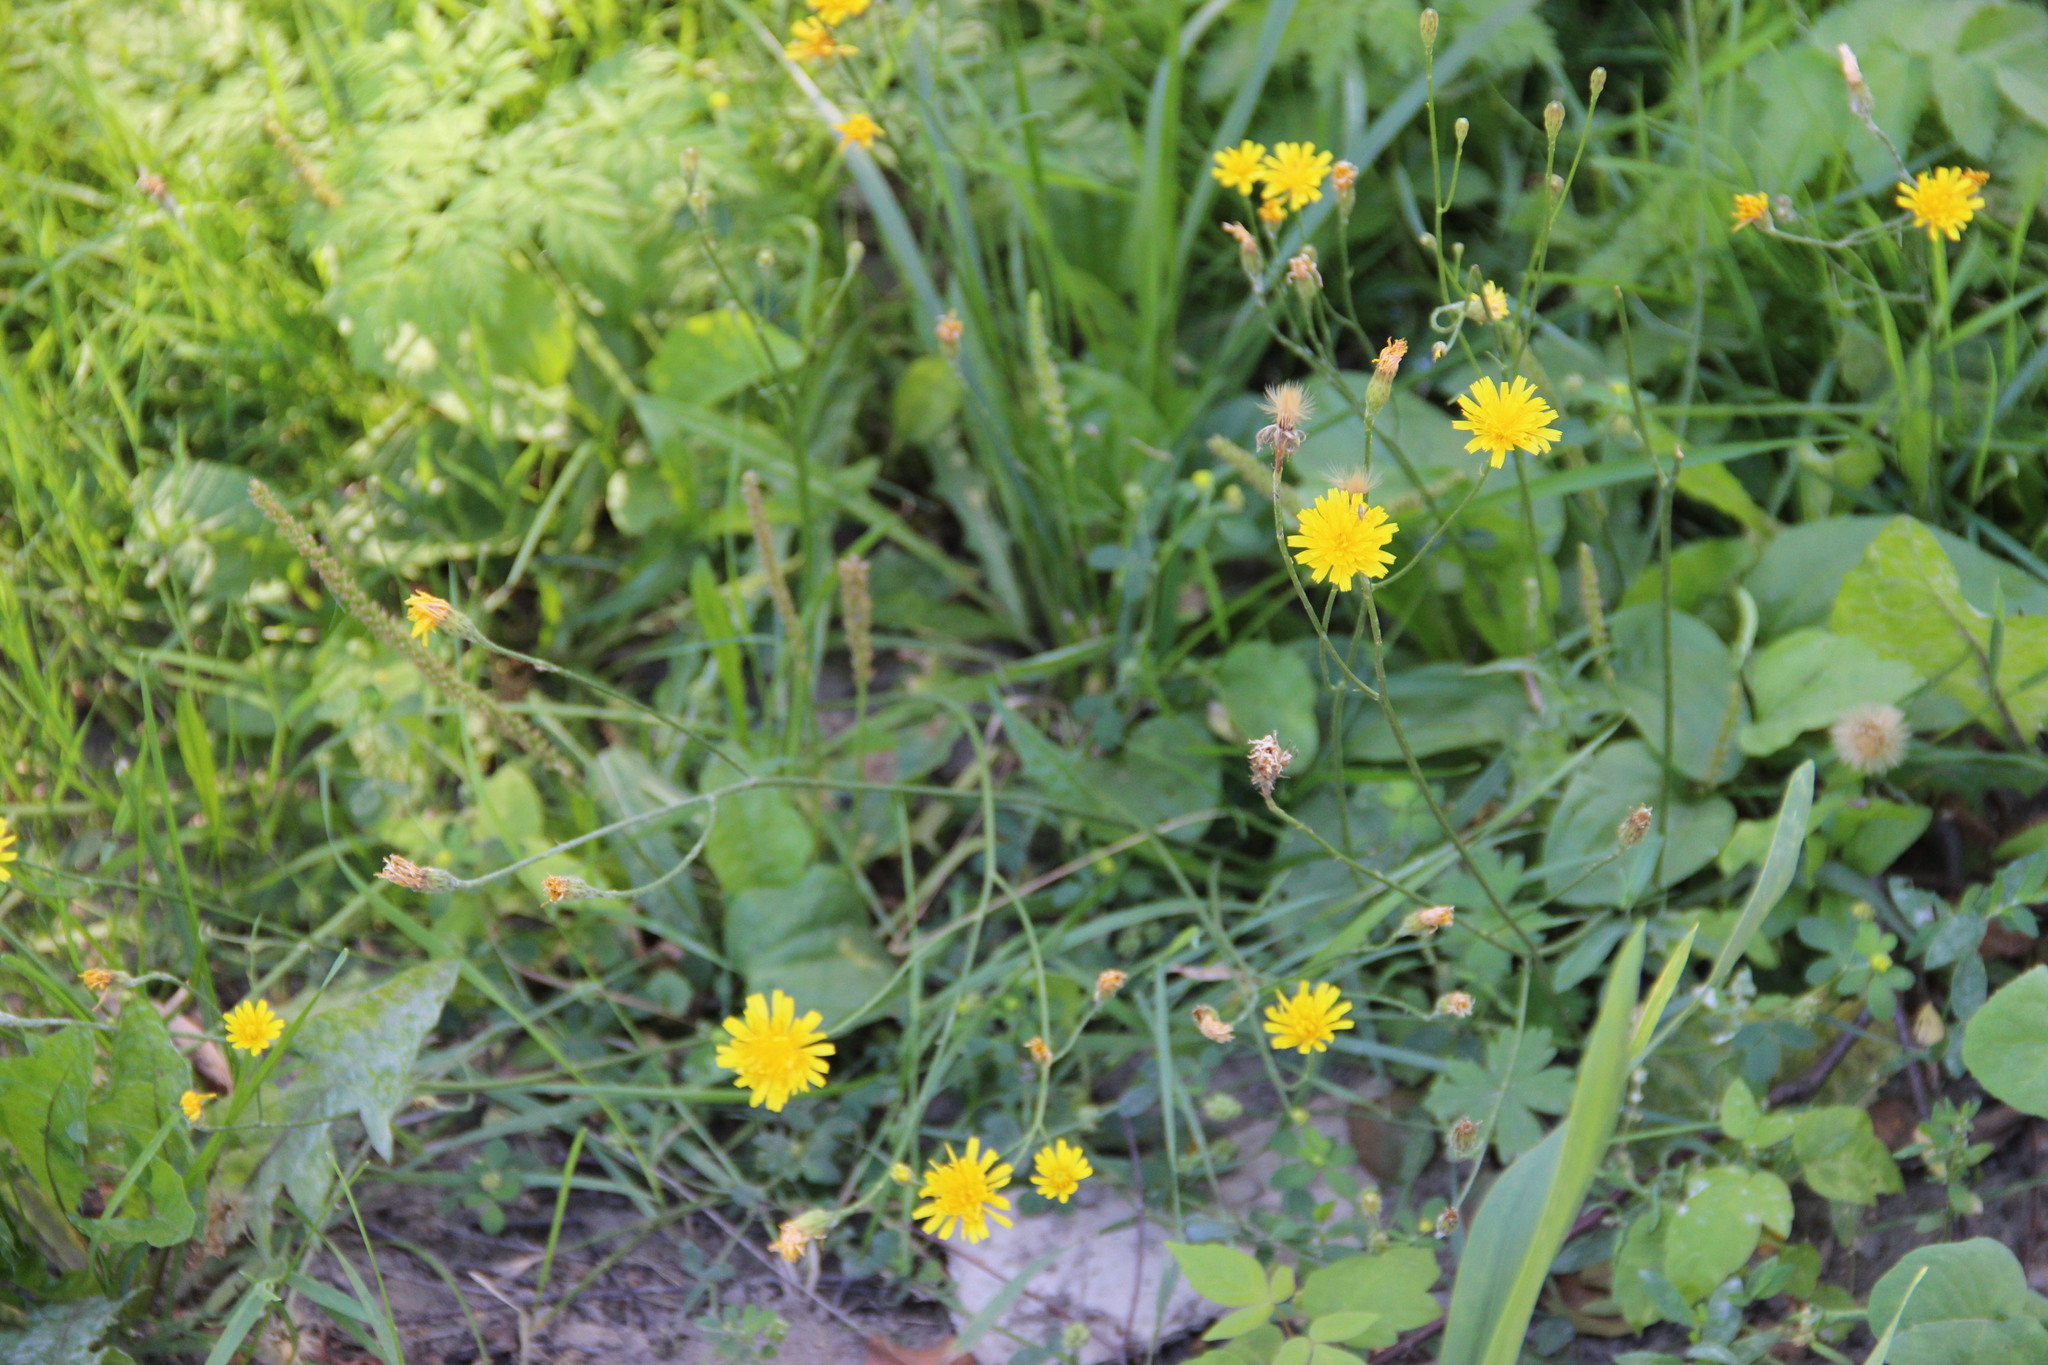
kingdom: Plantae
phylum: Tracheophyta
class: Magnoliopsida
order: Asterales
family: Asteraceae
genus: Scorzoneroides
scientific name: Scorzoneroides autumnalis
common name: Autumn hawkbit
